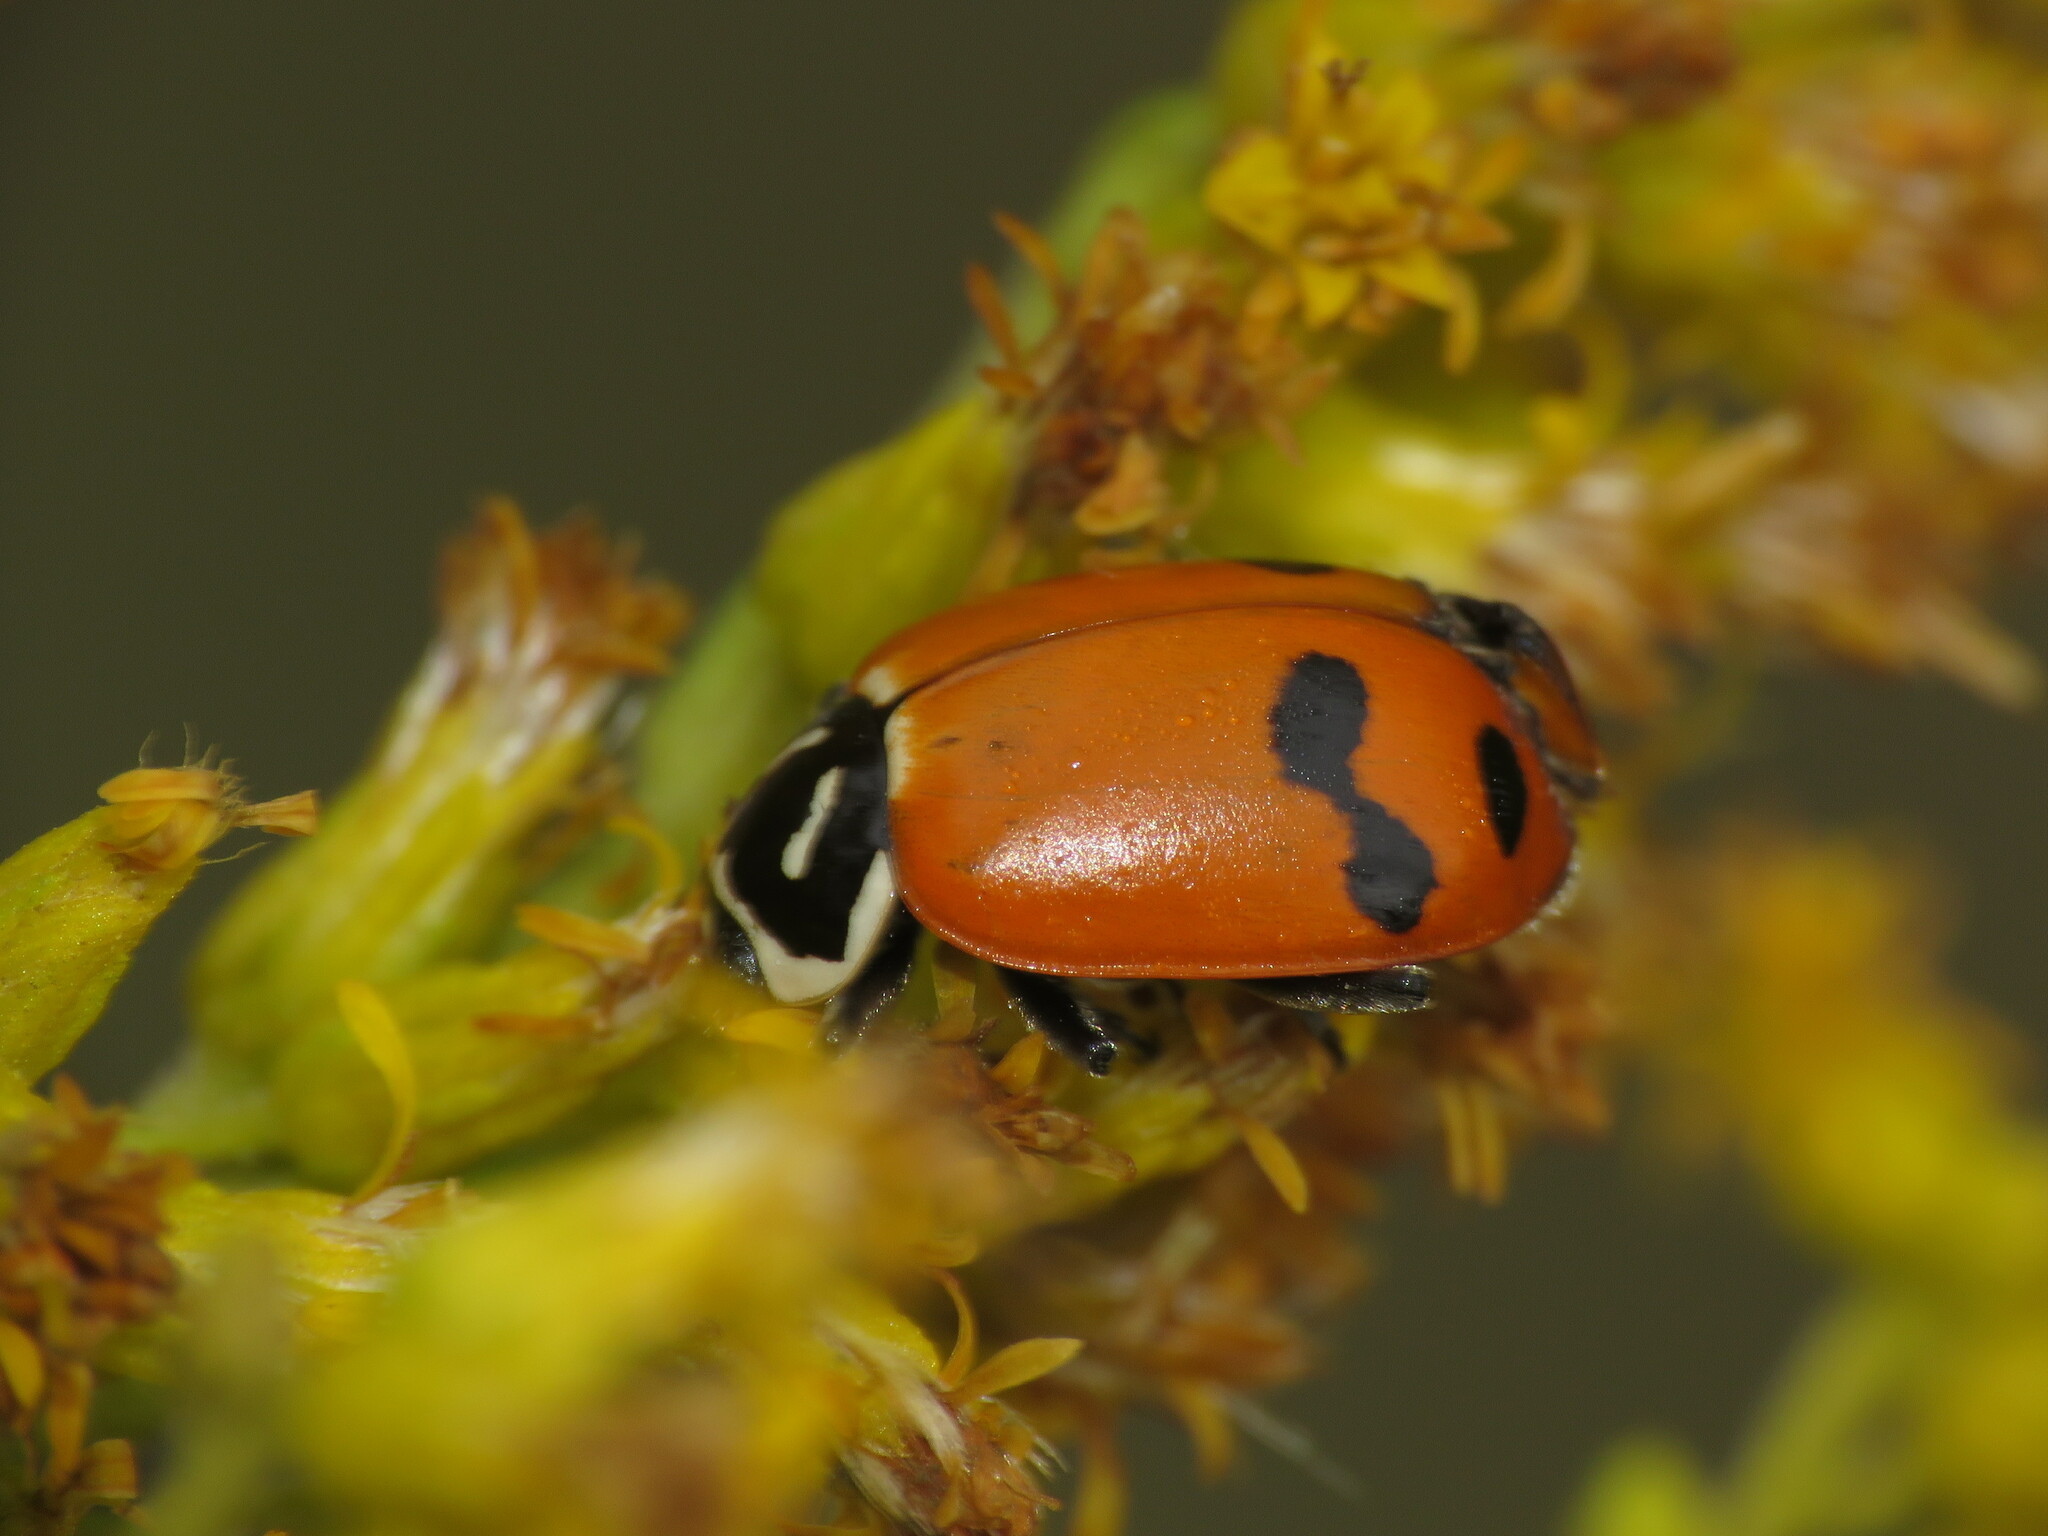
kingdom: Animalia
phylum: Arthropoda
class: Insecta
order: Coleoptera
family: Coccinellidae
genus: Hippodamia
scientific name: Hippodamia glacialis
